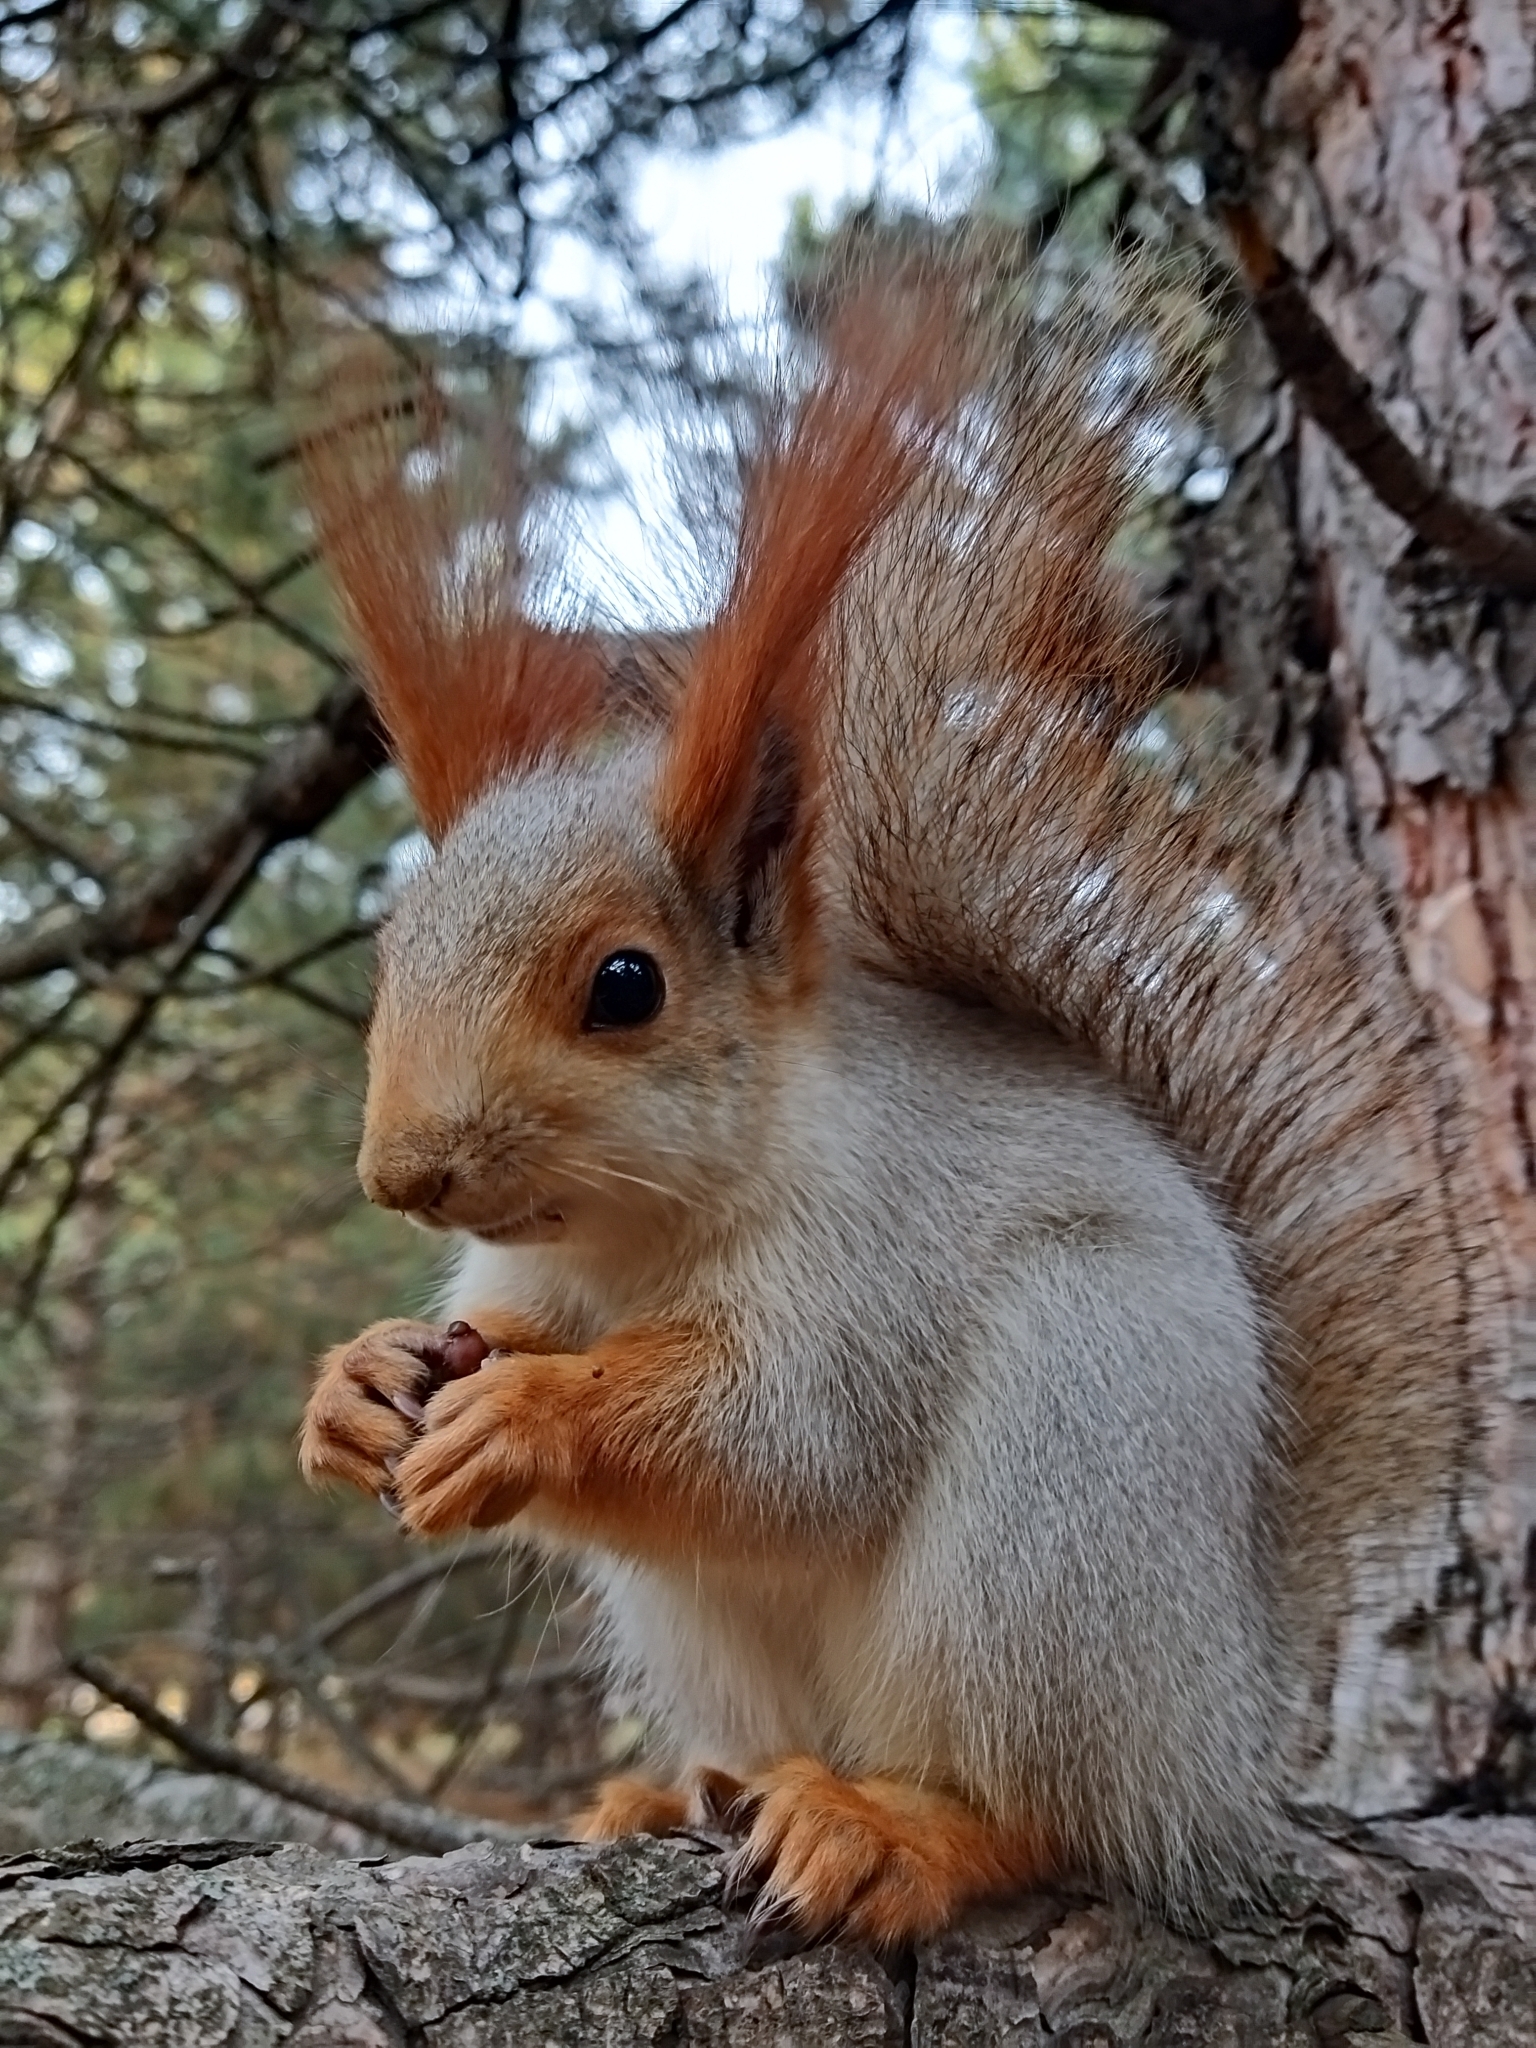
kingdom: Animalia
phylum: Chordata
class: Mammalia
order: Rodentia
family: Sciuridae
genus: Sciurus
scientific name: Sciurus vulgaris
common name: Eurasian red squirrel
